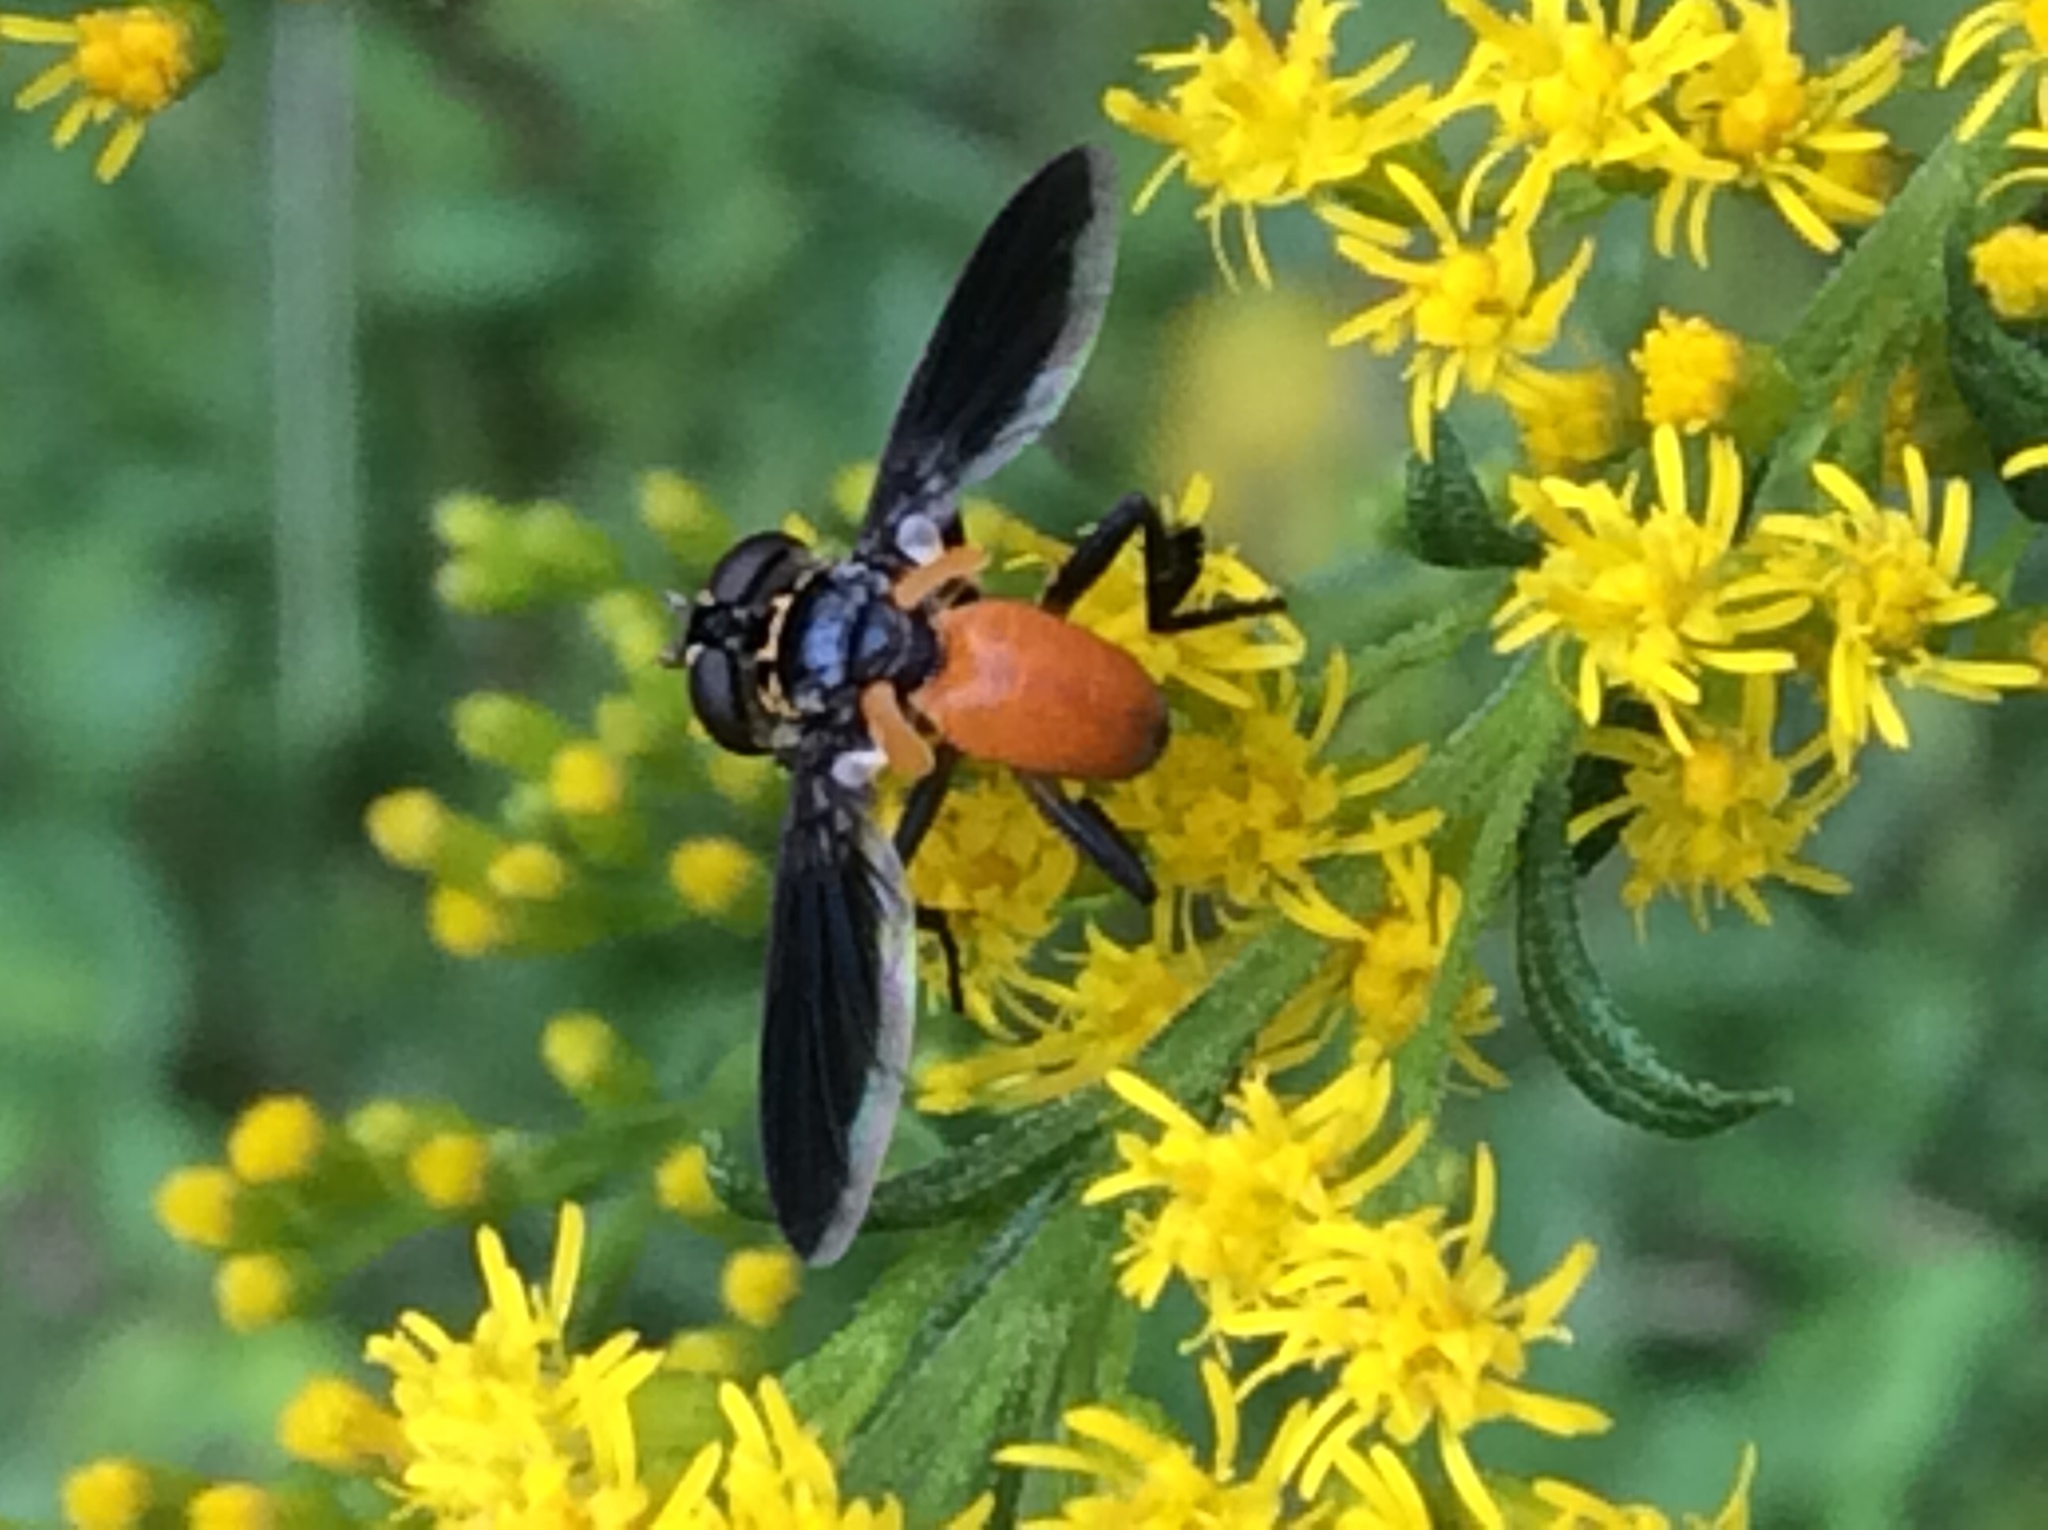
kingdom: Animalia
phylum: Arthropoda
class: Insecta
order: Diptera
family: Tachinidae
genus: Trichopoda
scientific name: Trichopoda pennipes
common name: Tachinid fly
